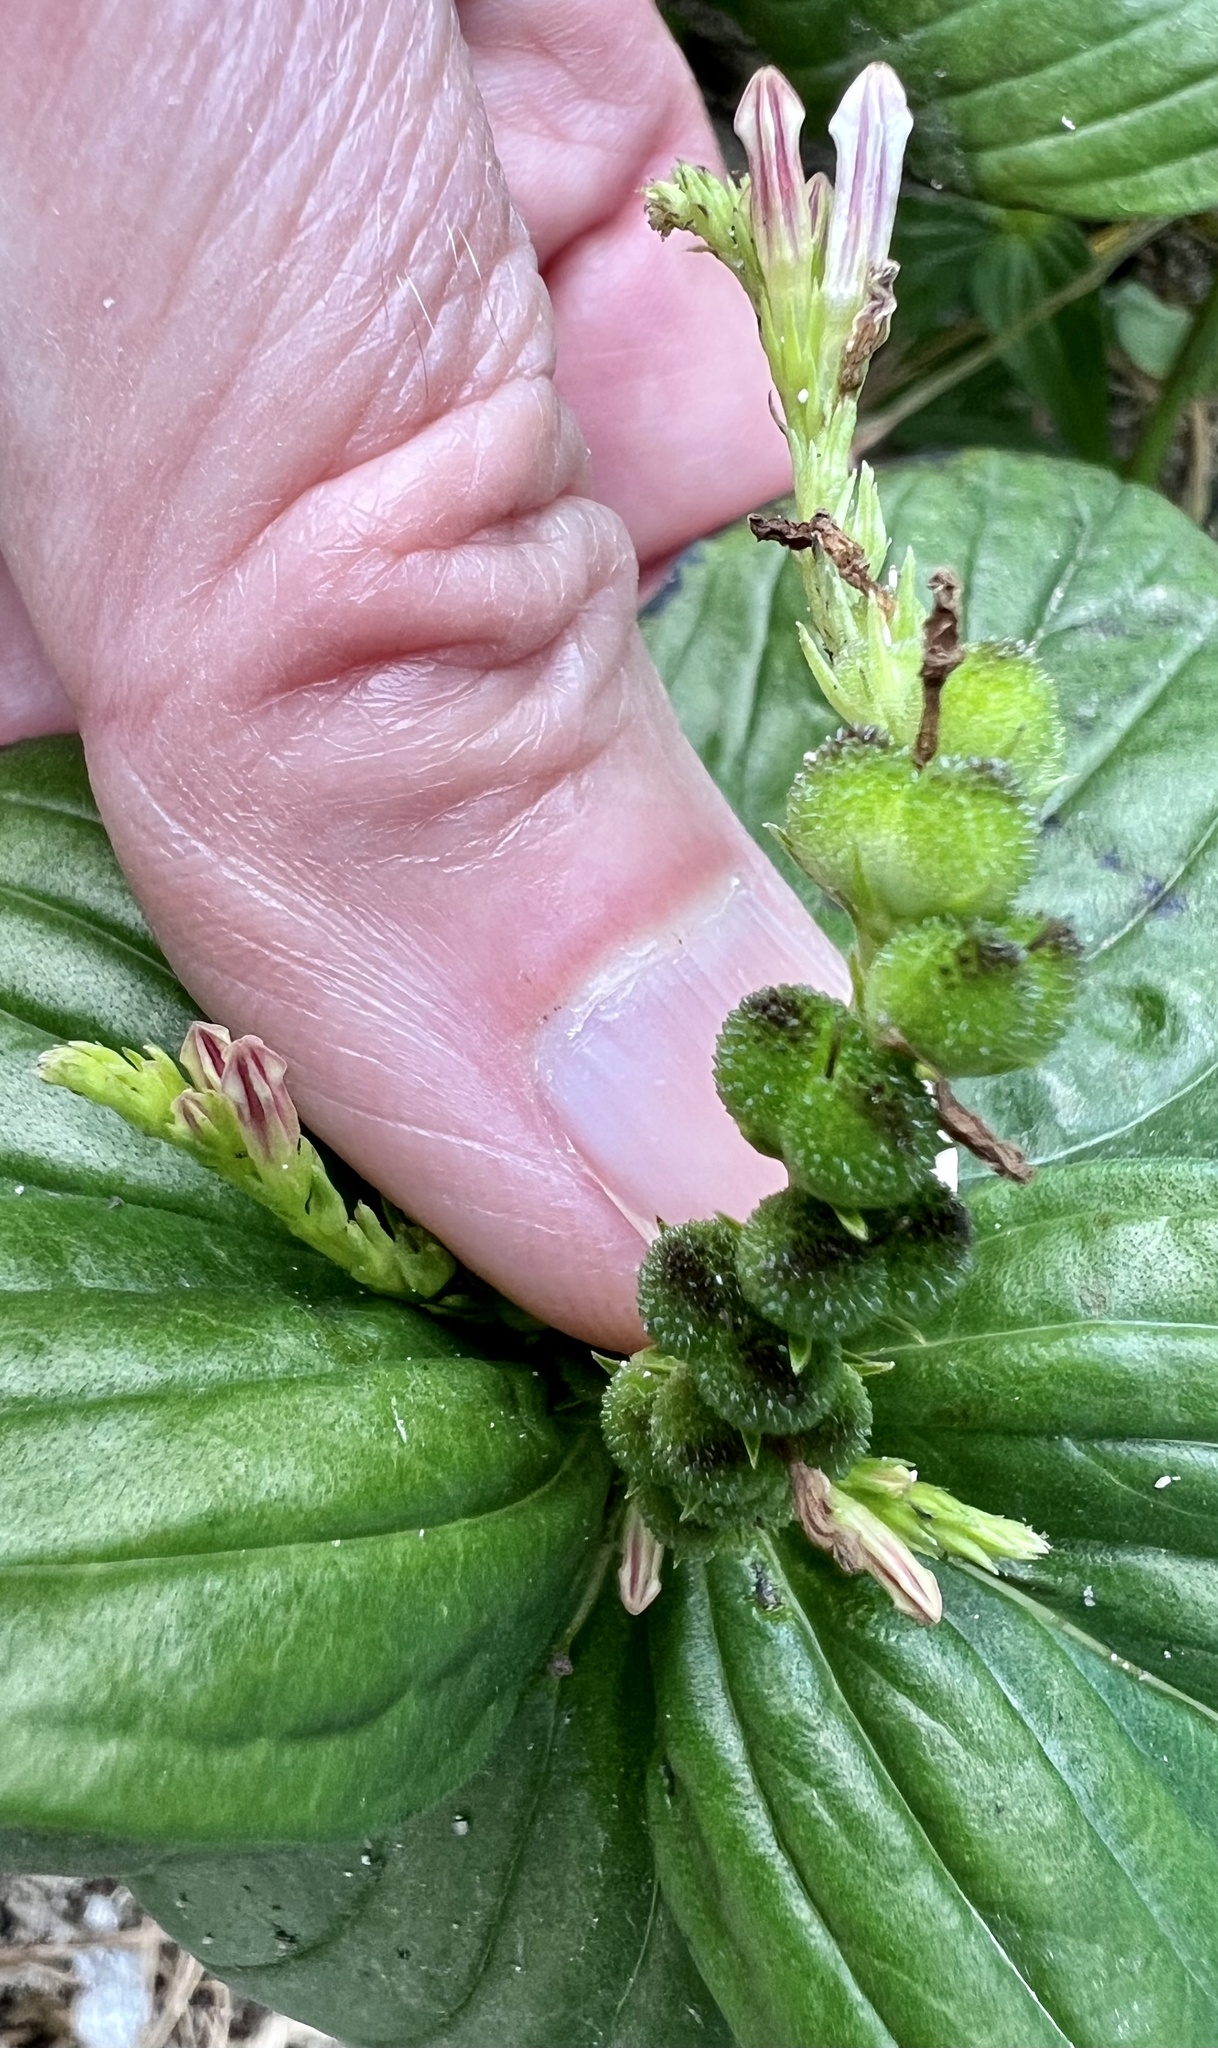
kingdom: Plantae
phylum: Tracheophyta
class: Magnoliopsida
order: Gentianales
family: Loganiaceae
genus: Spigelia
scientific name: Spigelia anthelmia
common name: West indian-pink
